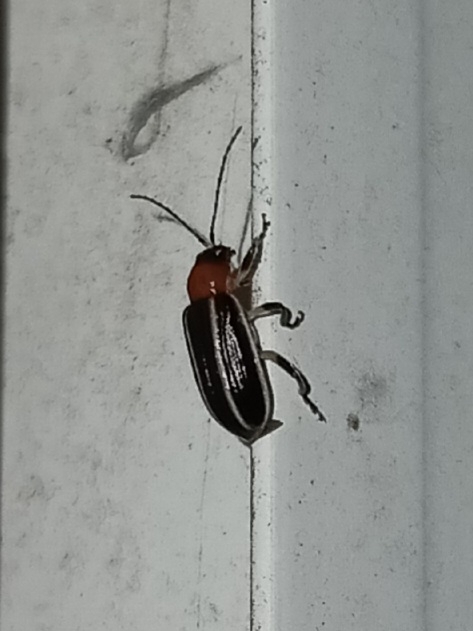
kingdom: Animalia
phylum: Arthropoda
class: Insecta
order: Coleoptera
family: Chrysomelidae
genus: Acalymma
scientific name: Acalymma vinctum
